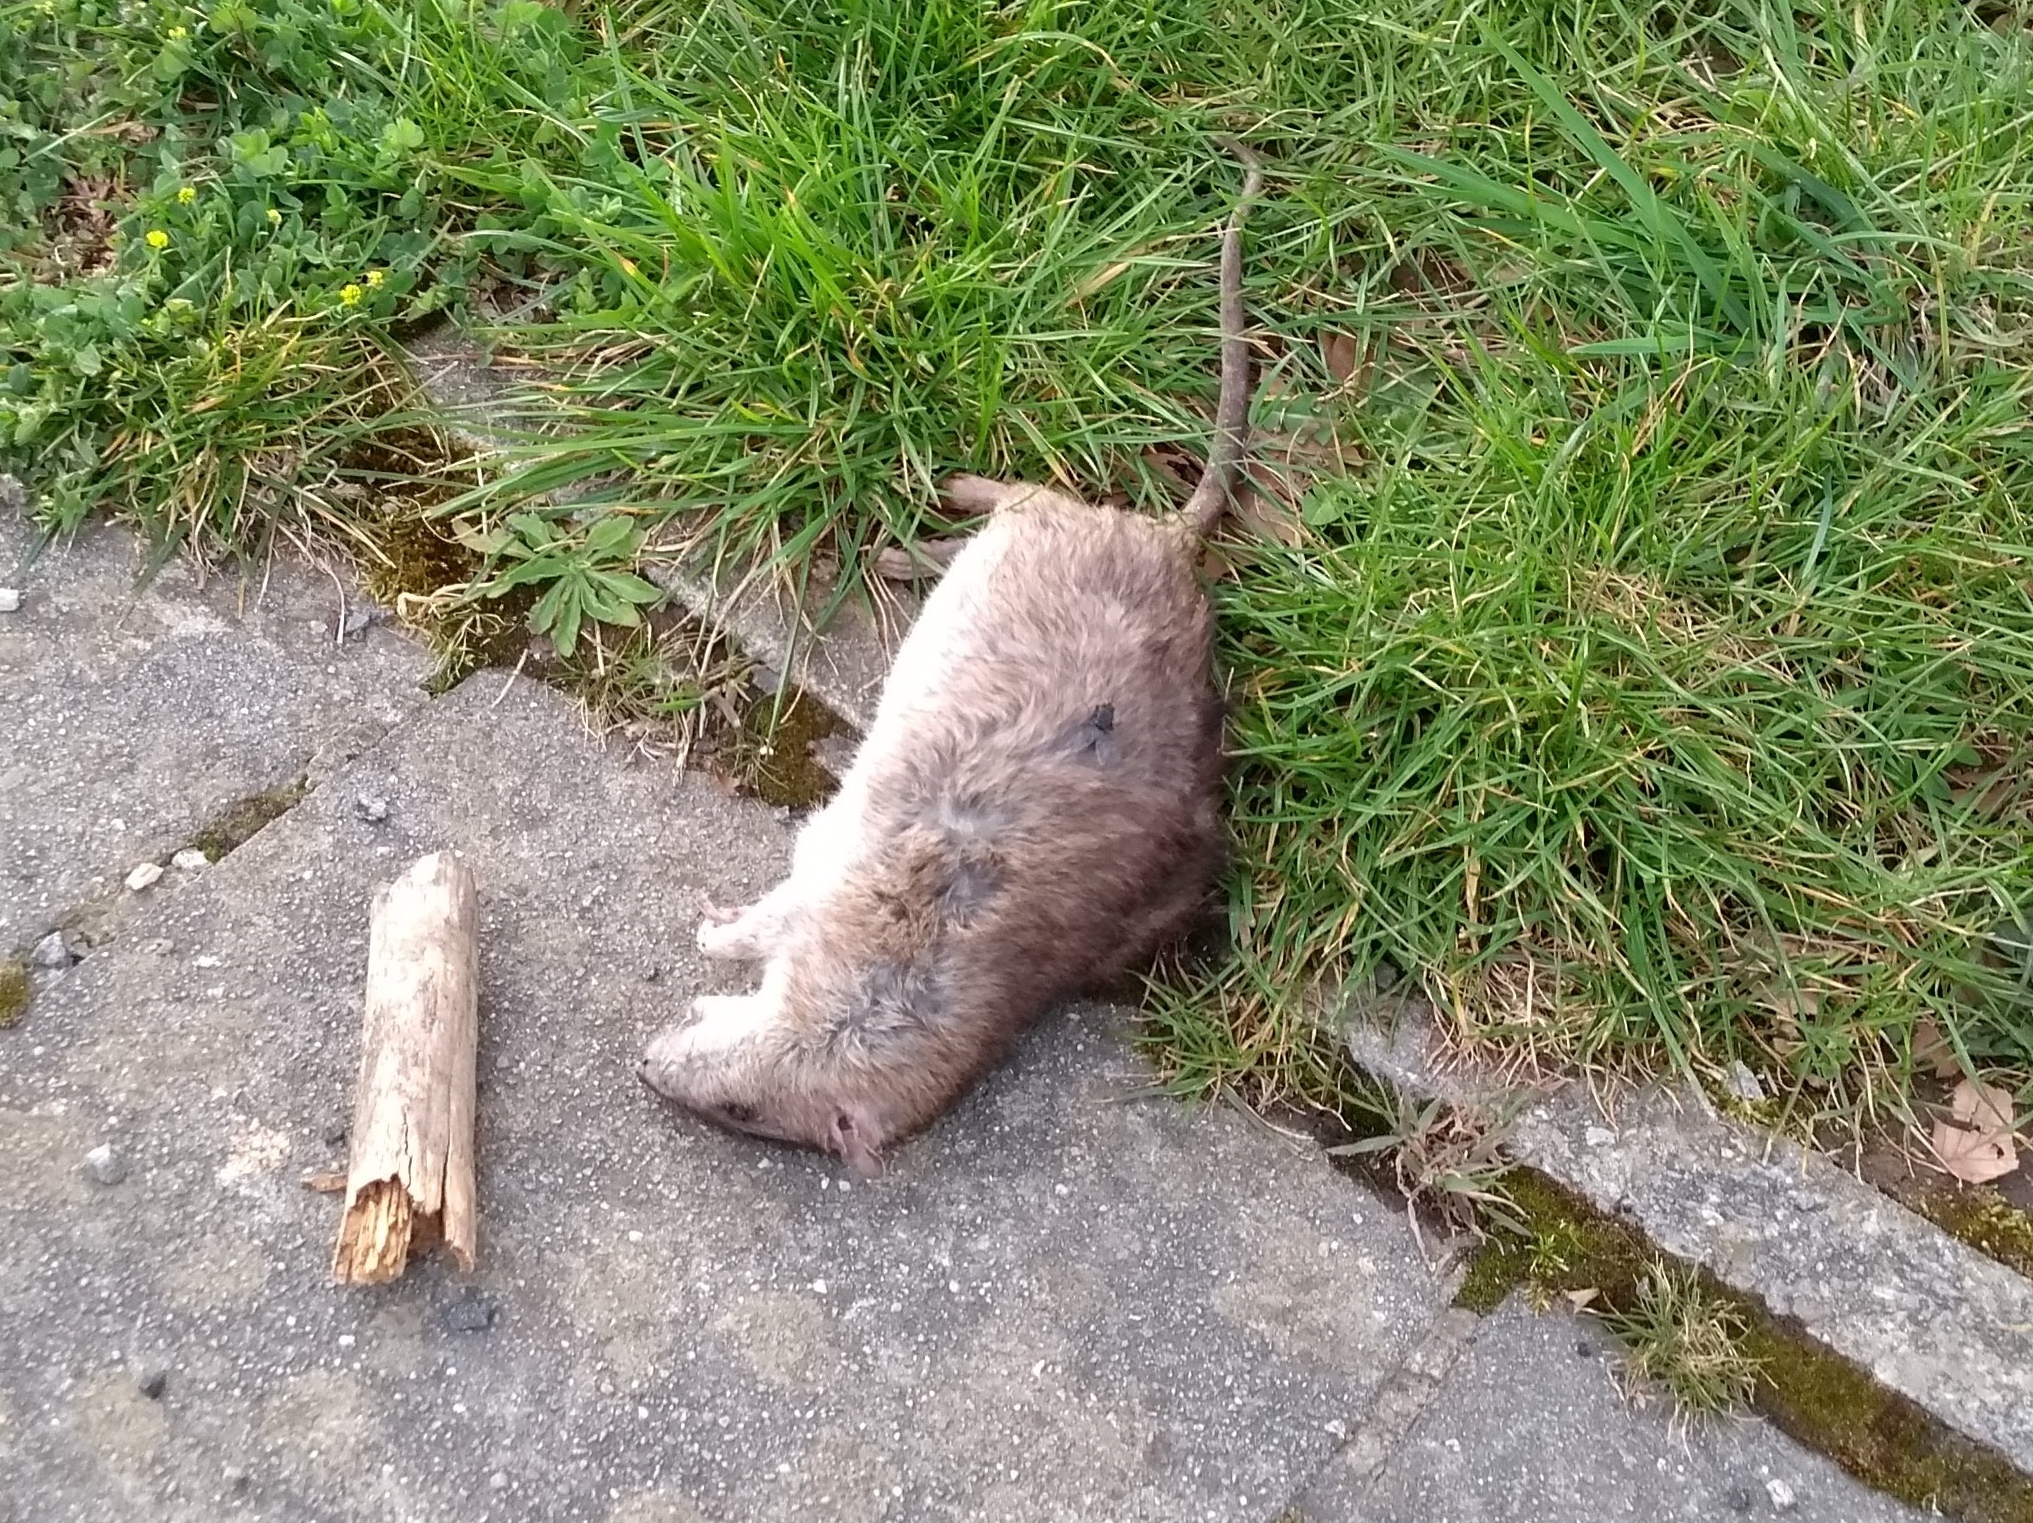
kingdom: Animalia
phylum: Chordata
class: Mammalia
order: Rodentia
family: Muridae
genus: Rattus
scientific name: Rattus norvegicus
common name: Brown rat
